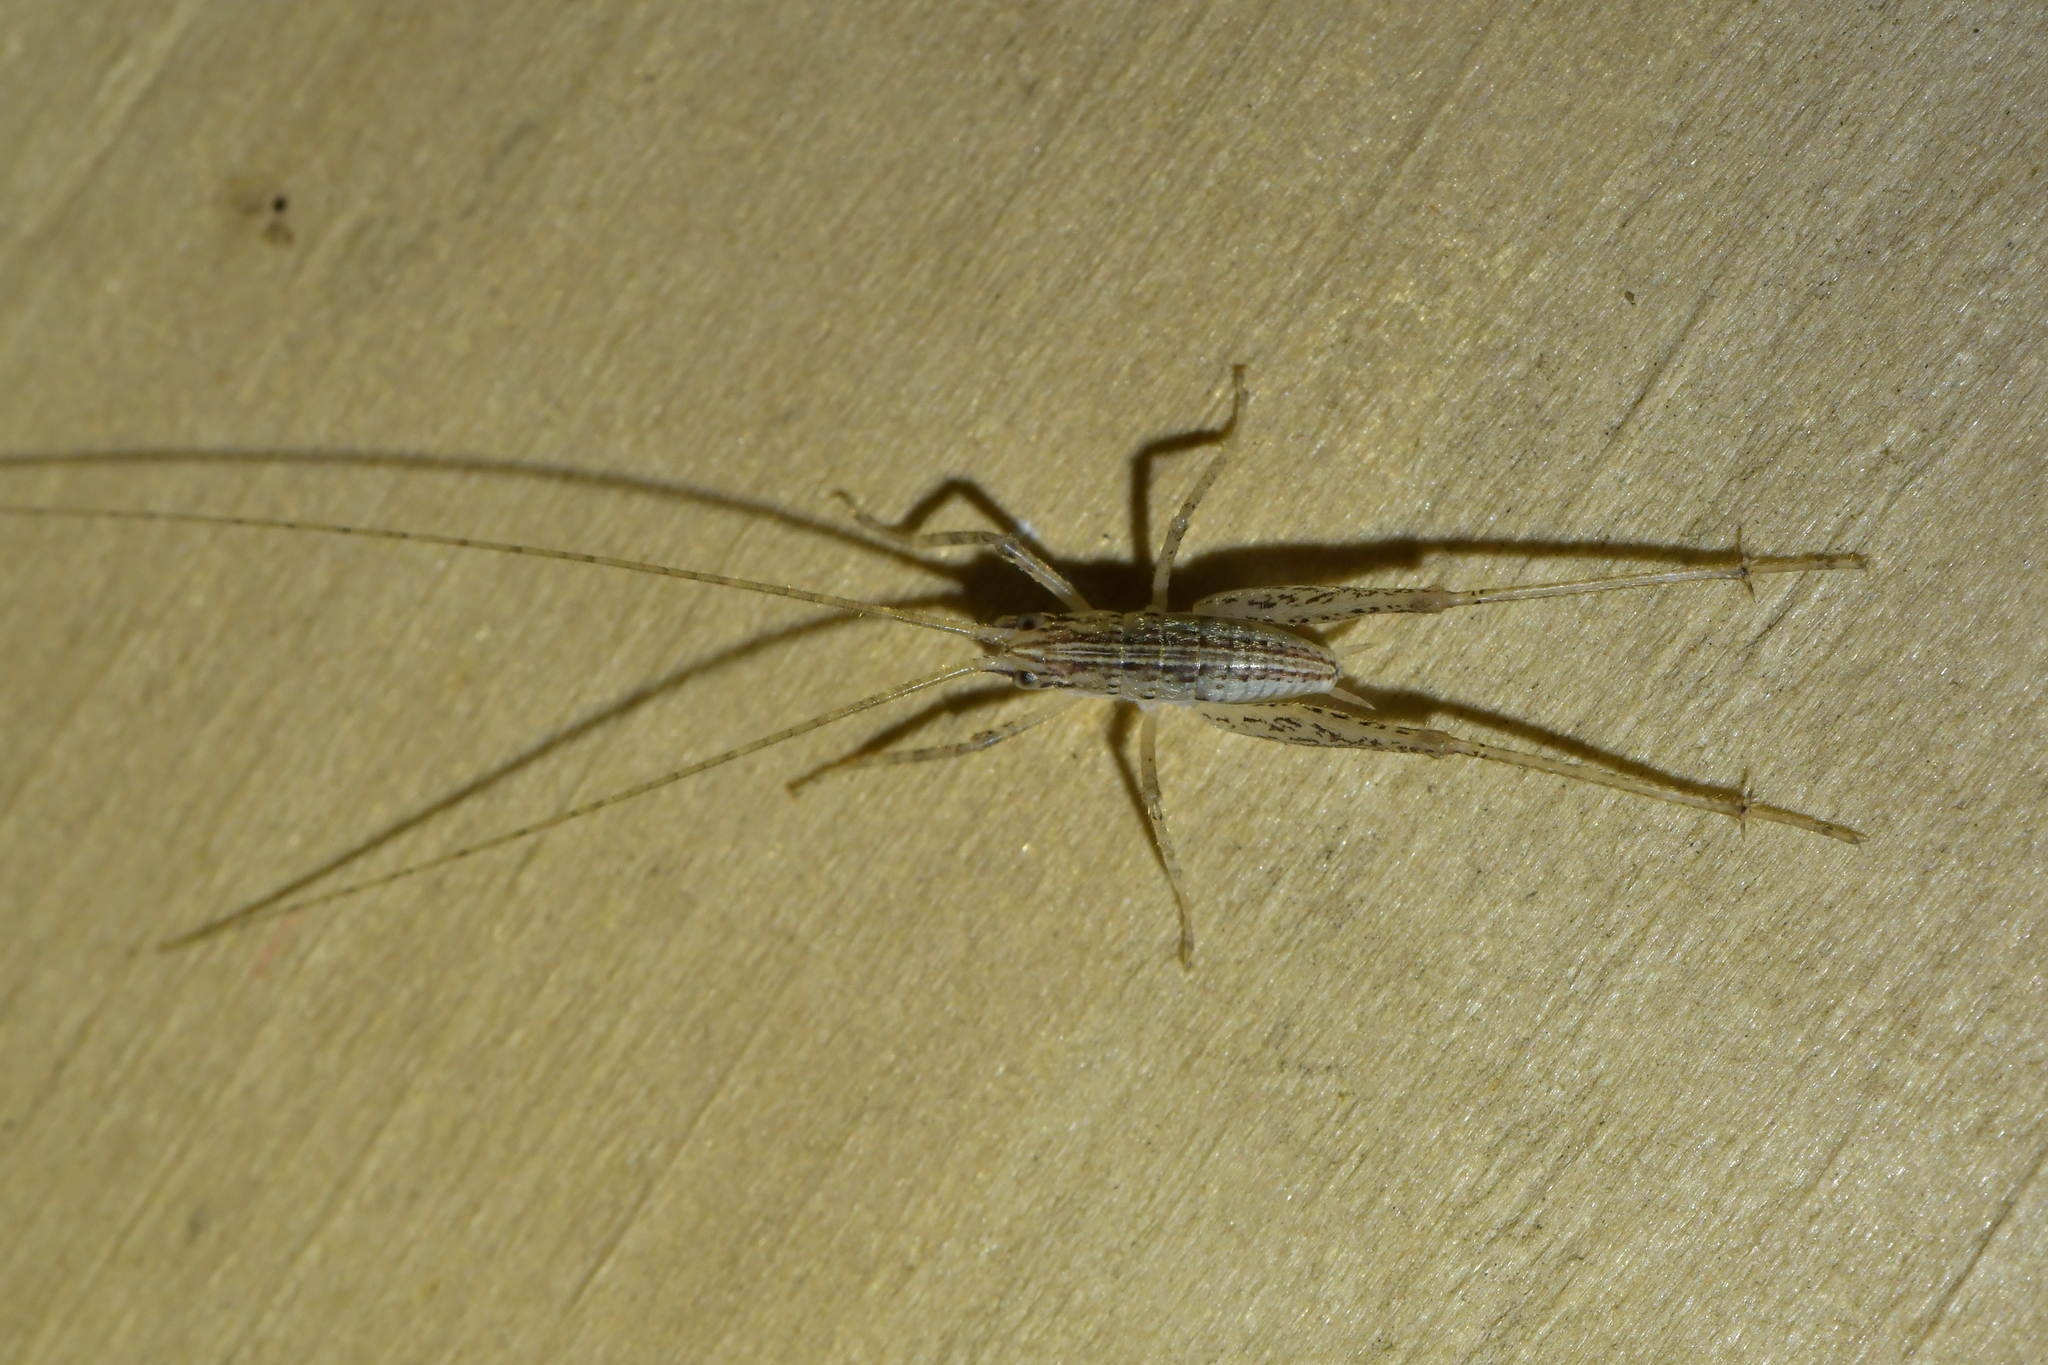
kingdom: Animalia
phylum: Arthropoda
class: Insecta
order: Orthoptera
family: Rhaphidophoridae
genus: Talitropsis
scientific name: Talitropsis poduroides
